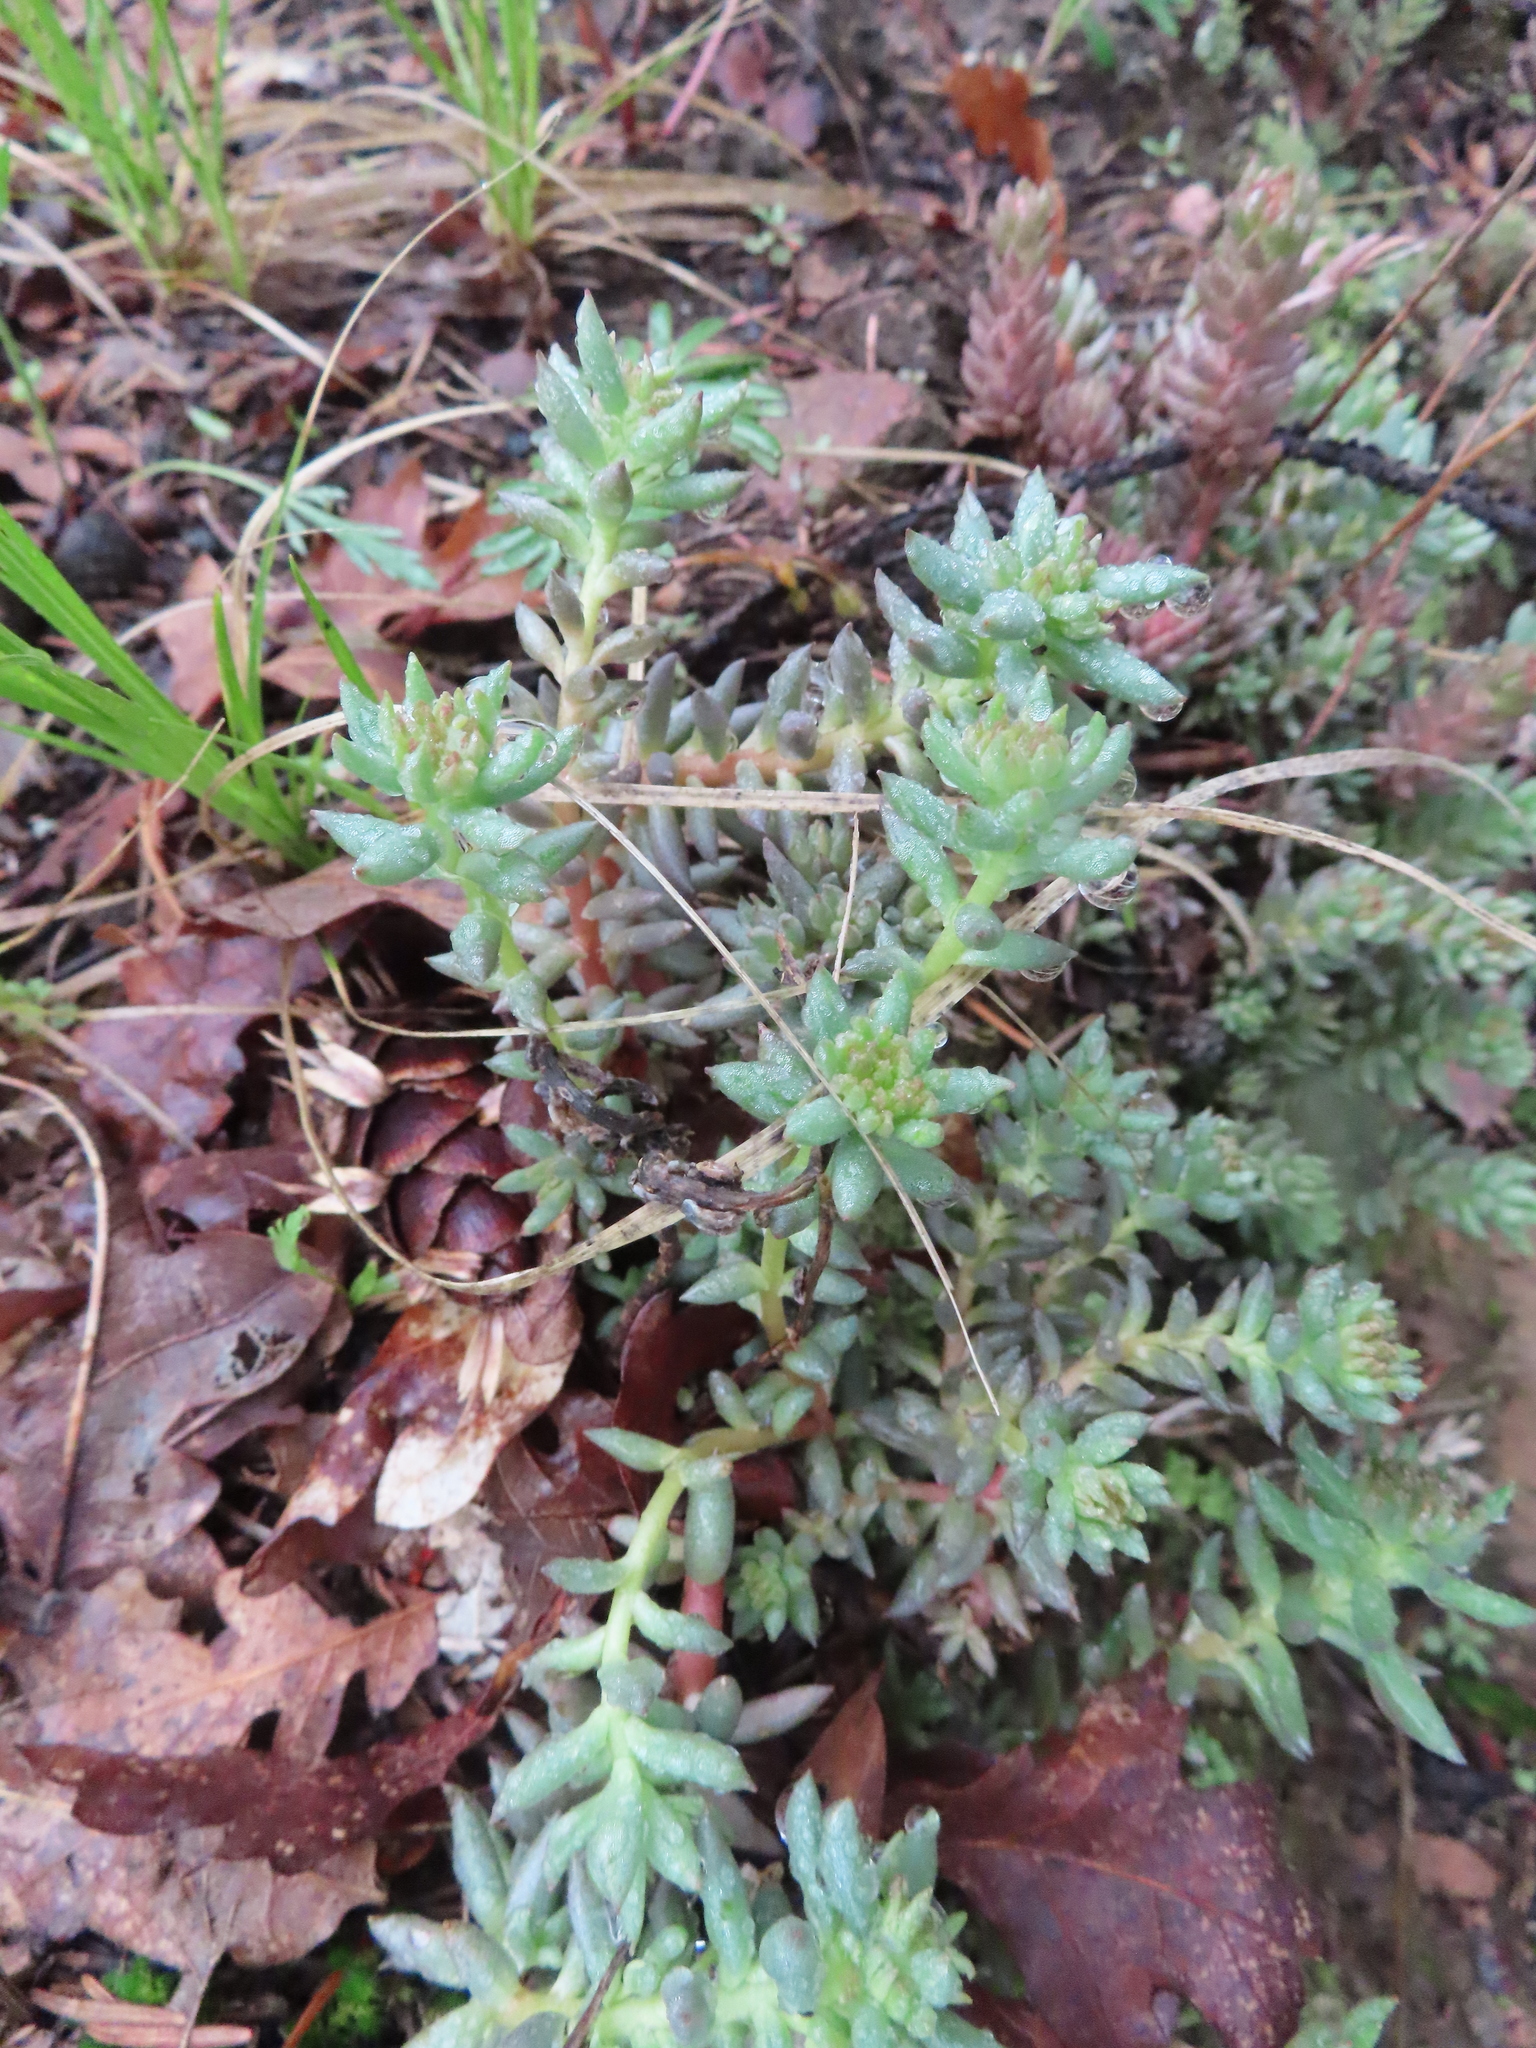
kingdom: Plantae
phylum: Tracheophyta
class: Magnoliopsida
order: Saxifragales
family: Crassulaceae
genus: Sedum
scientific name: Sedum lanceolatum
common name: Common stonecrop
